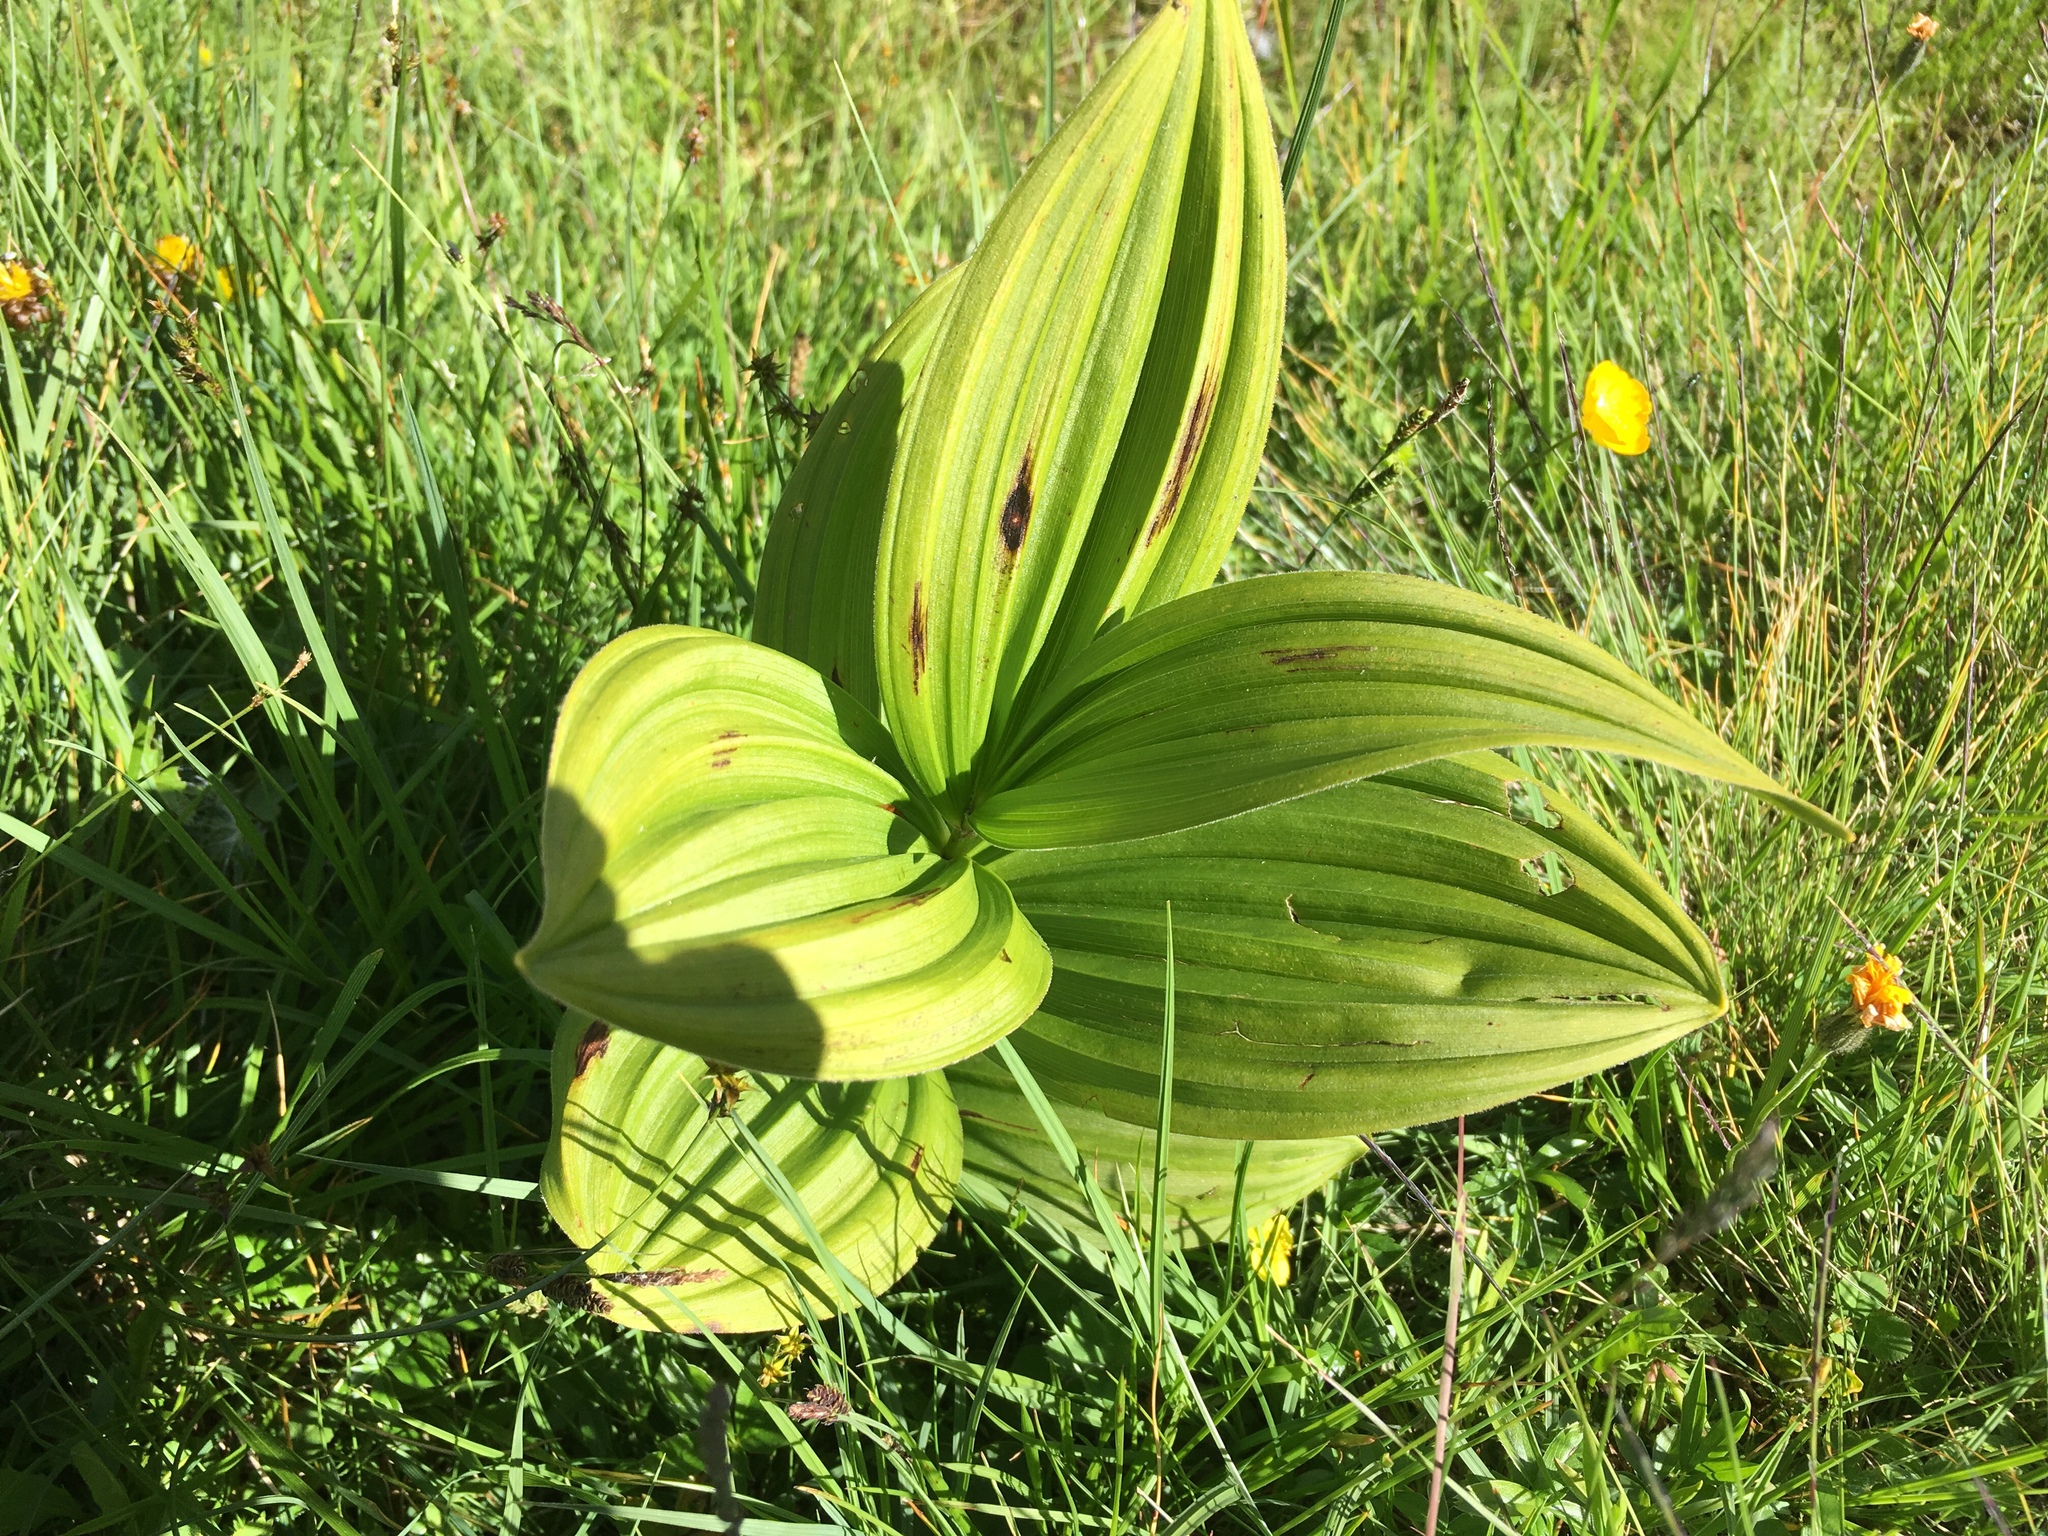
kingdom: Plantae
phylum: Tracheophyta
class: Liliopsida
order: Liliales
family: Melanthiaceae
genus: Veratrum
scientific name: Veratrum album
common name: White veratrum
